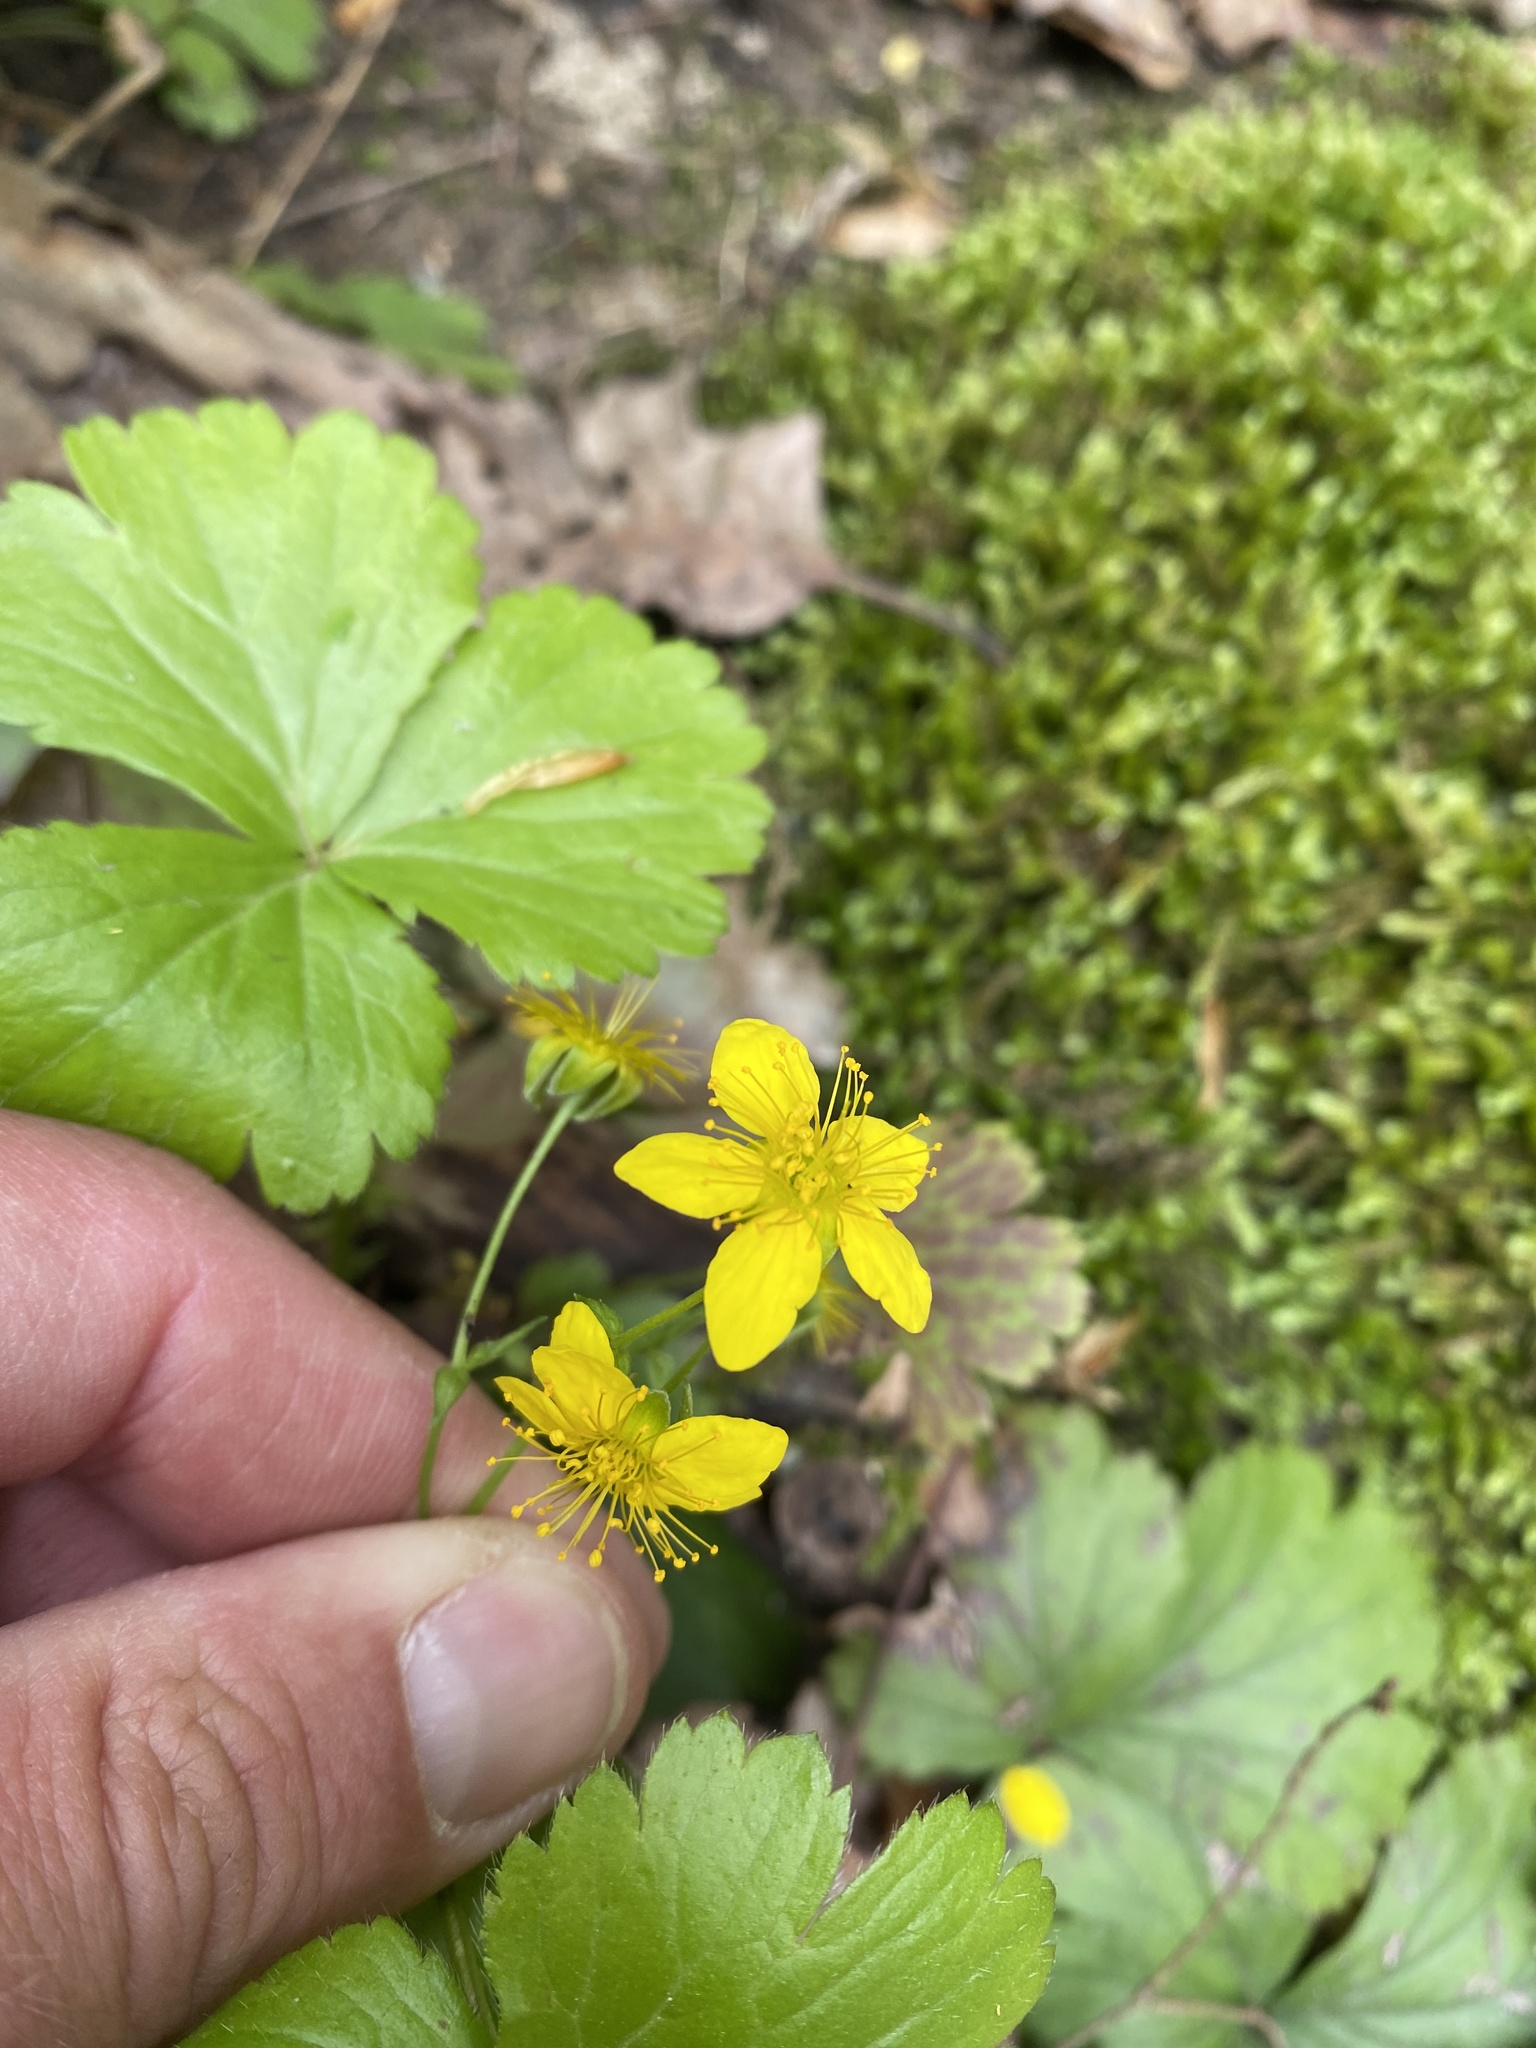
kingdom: Plantae
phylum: Tracheophyta
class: Magnoliopsida
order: Rosales
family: Rosaceae
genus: Geum
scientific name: Geum fragarioides
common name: Appalachian barren strawberry
